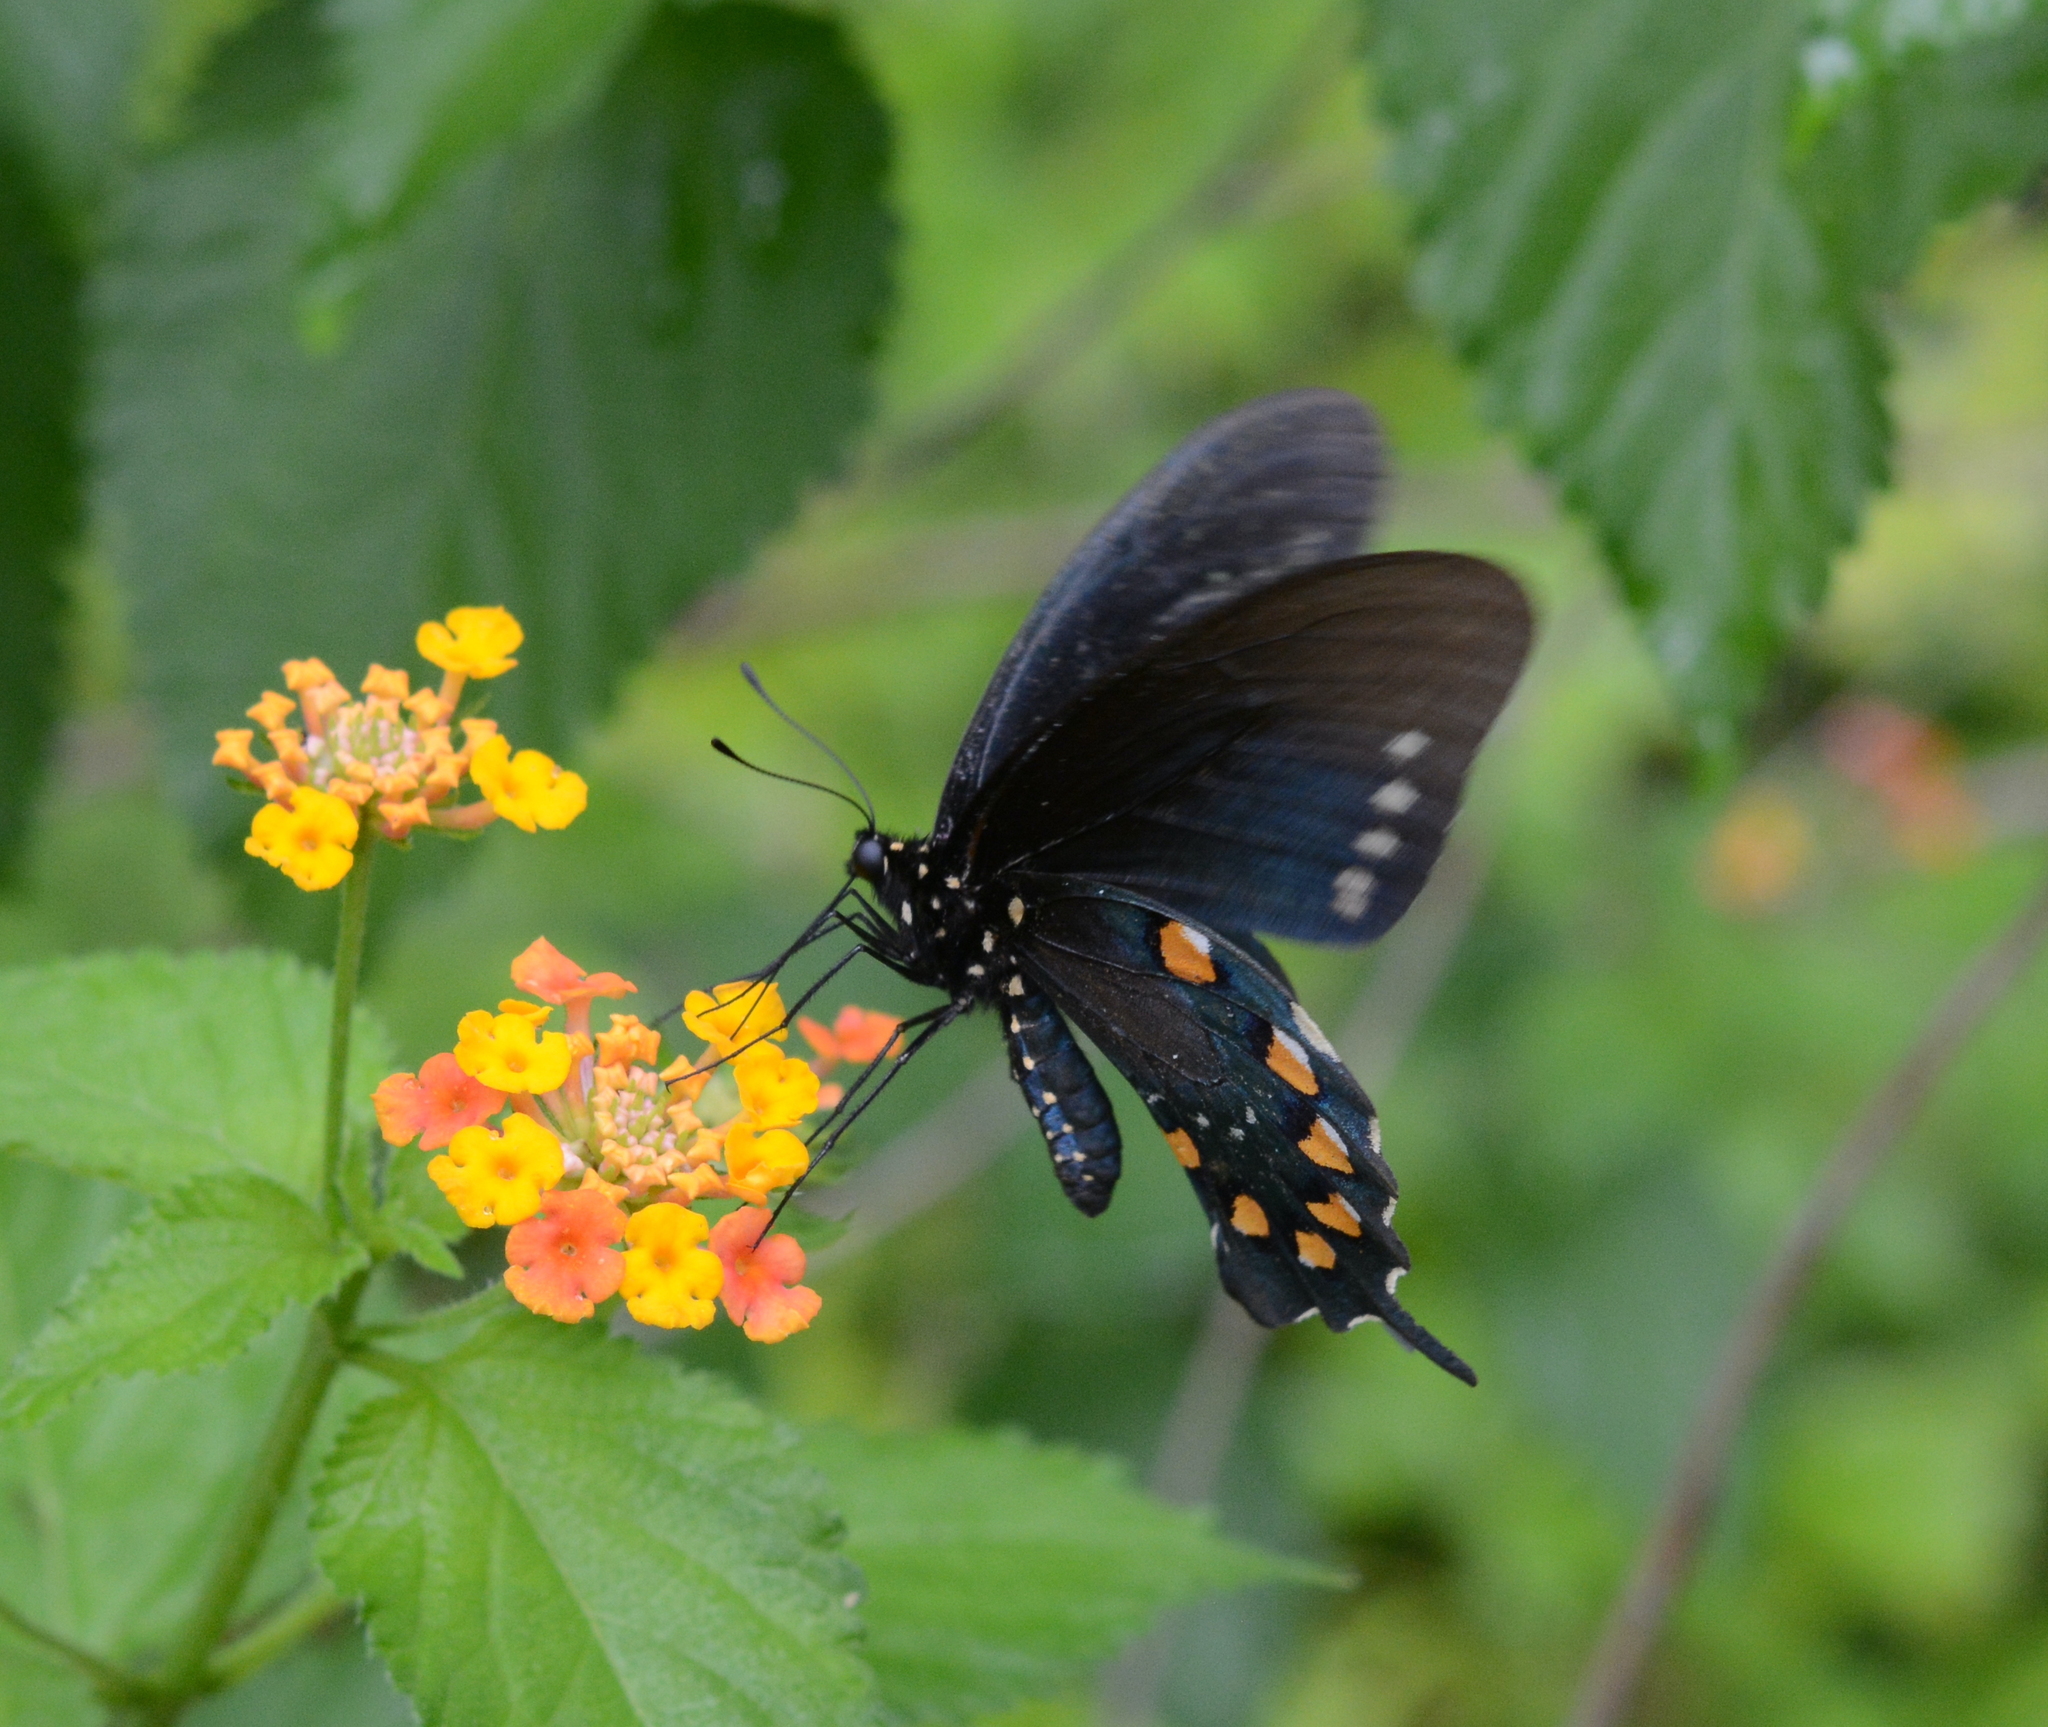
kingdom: Animalia
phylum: Arthropoda
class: Insecta
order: Lepidoptera
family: Papilionidae
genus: Battus
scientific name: Battus philenor
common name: Pipevine swallowtail
